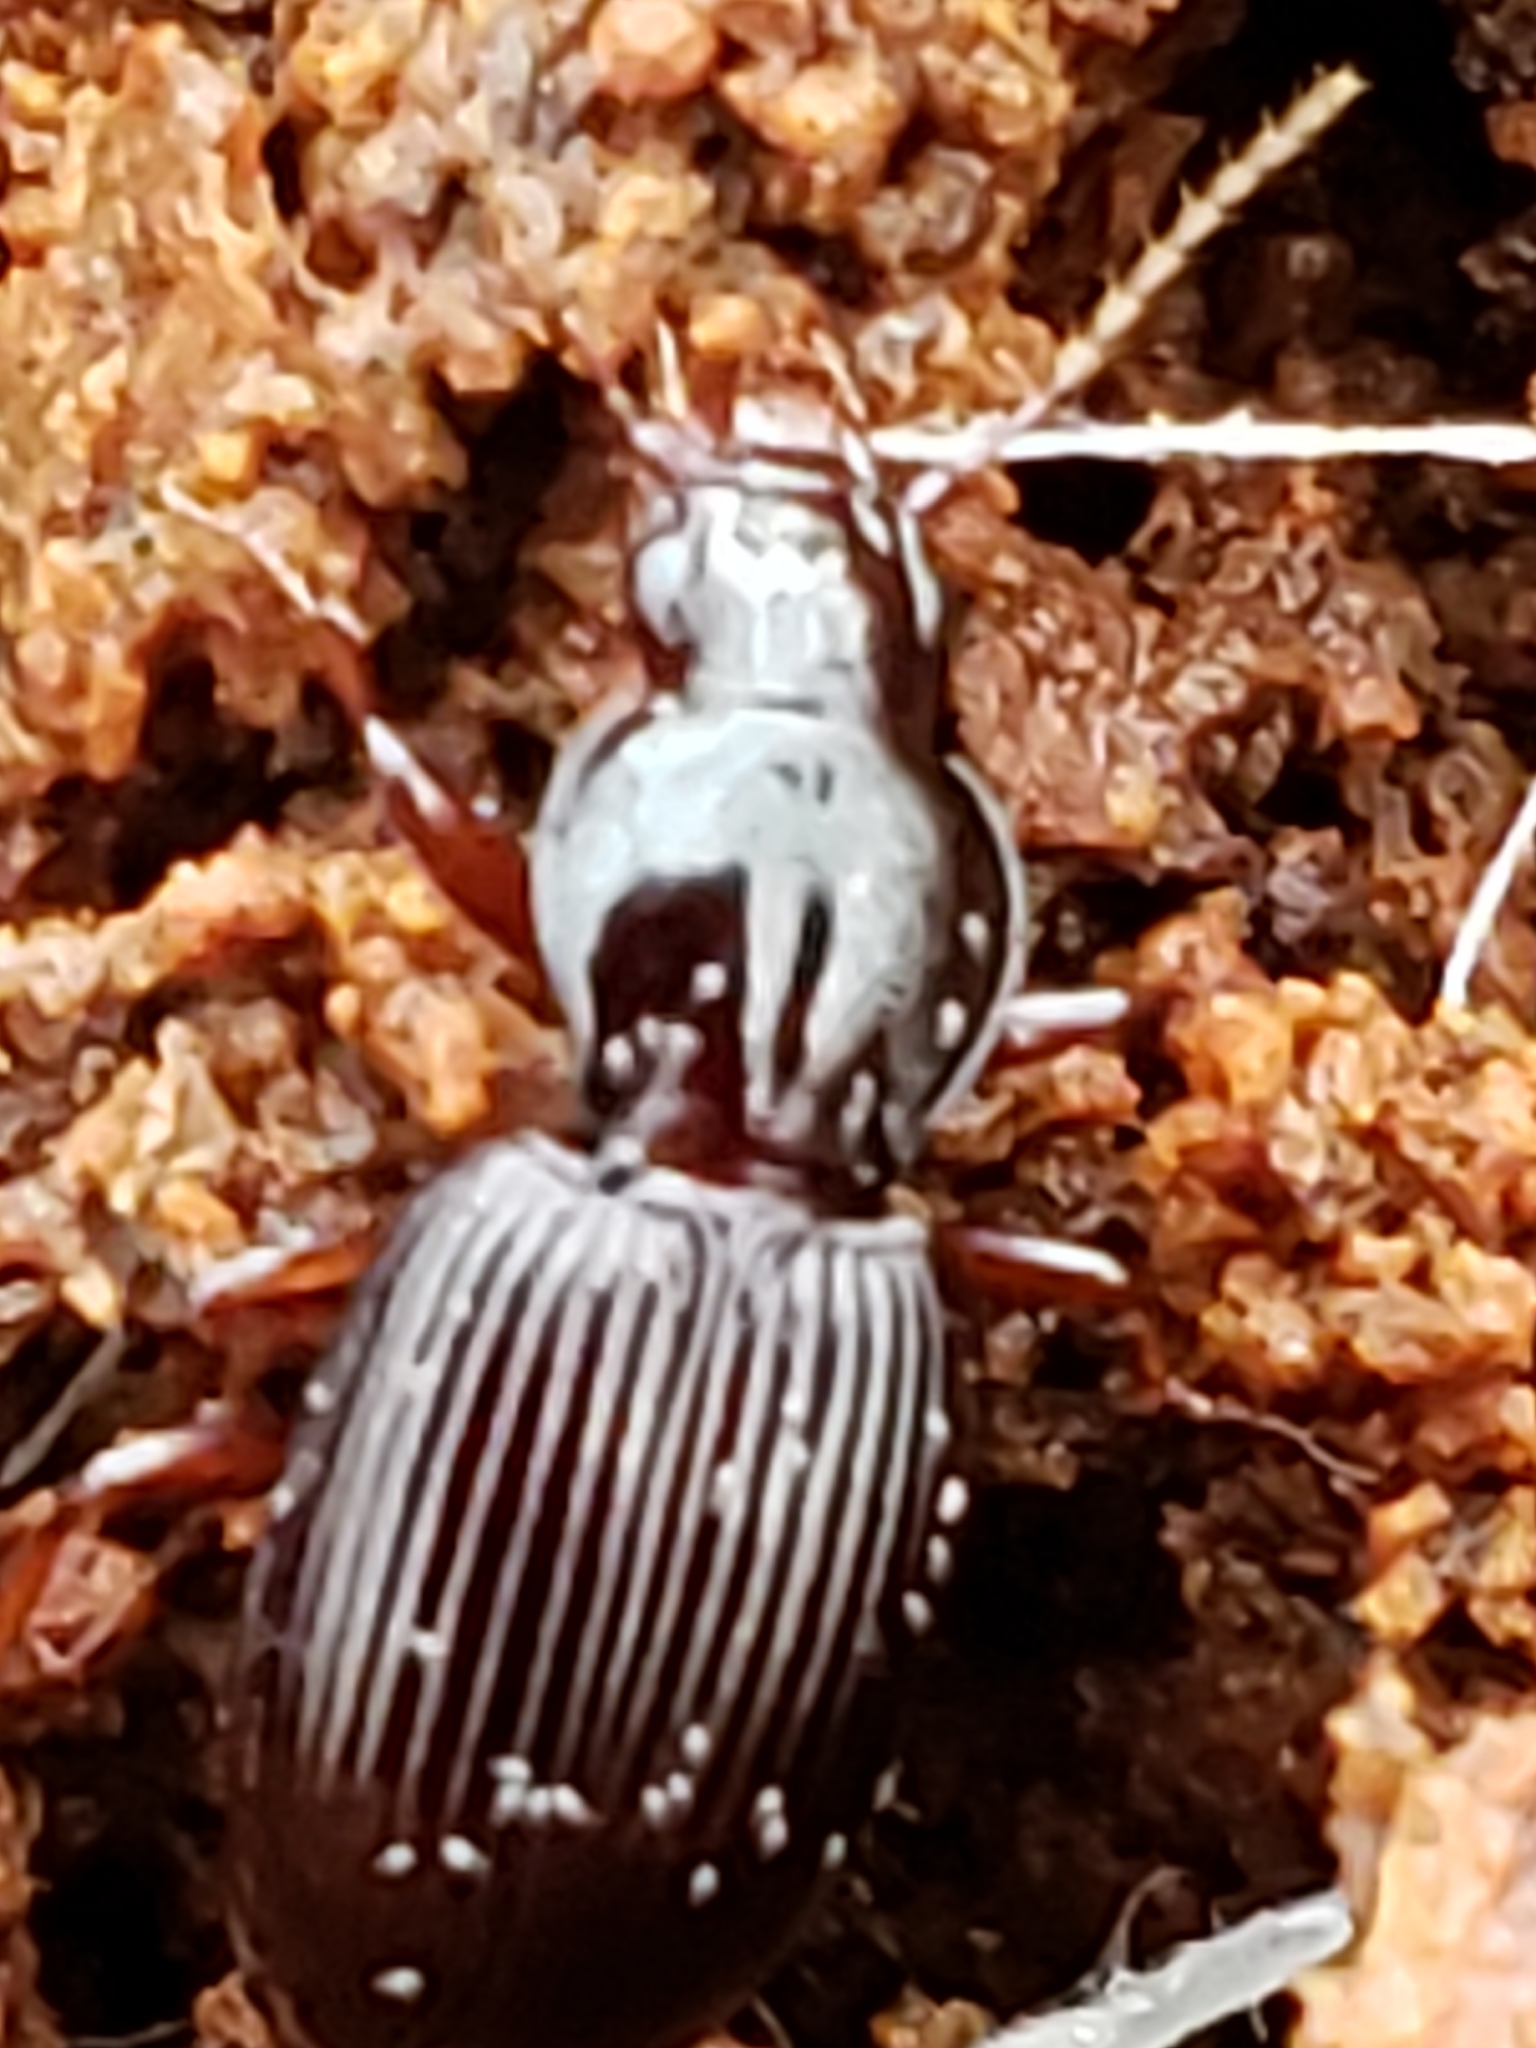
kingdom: Animalia
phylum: Arthropoda
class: Insecta
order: Coleoptera
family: Carabidae
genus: Gastrellarius
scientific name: Gastrellarius honestus
